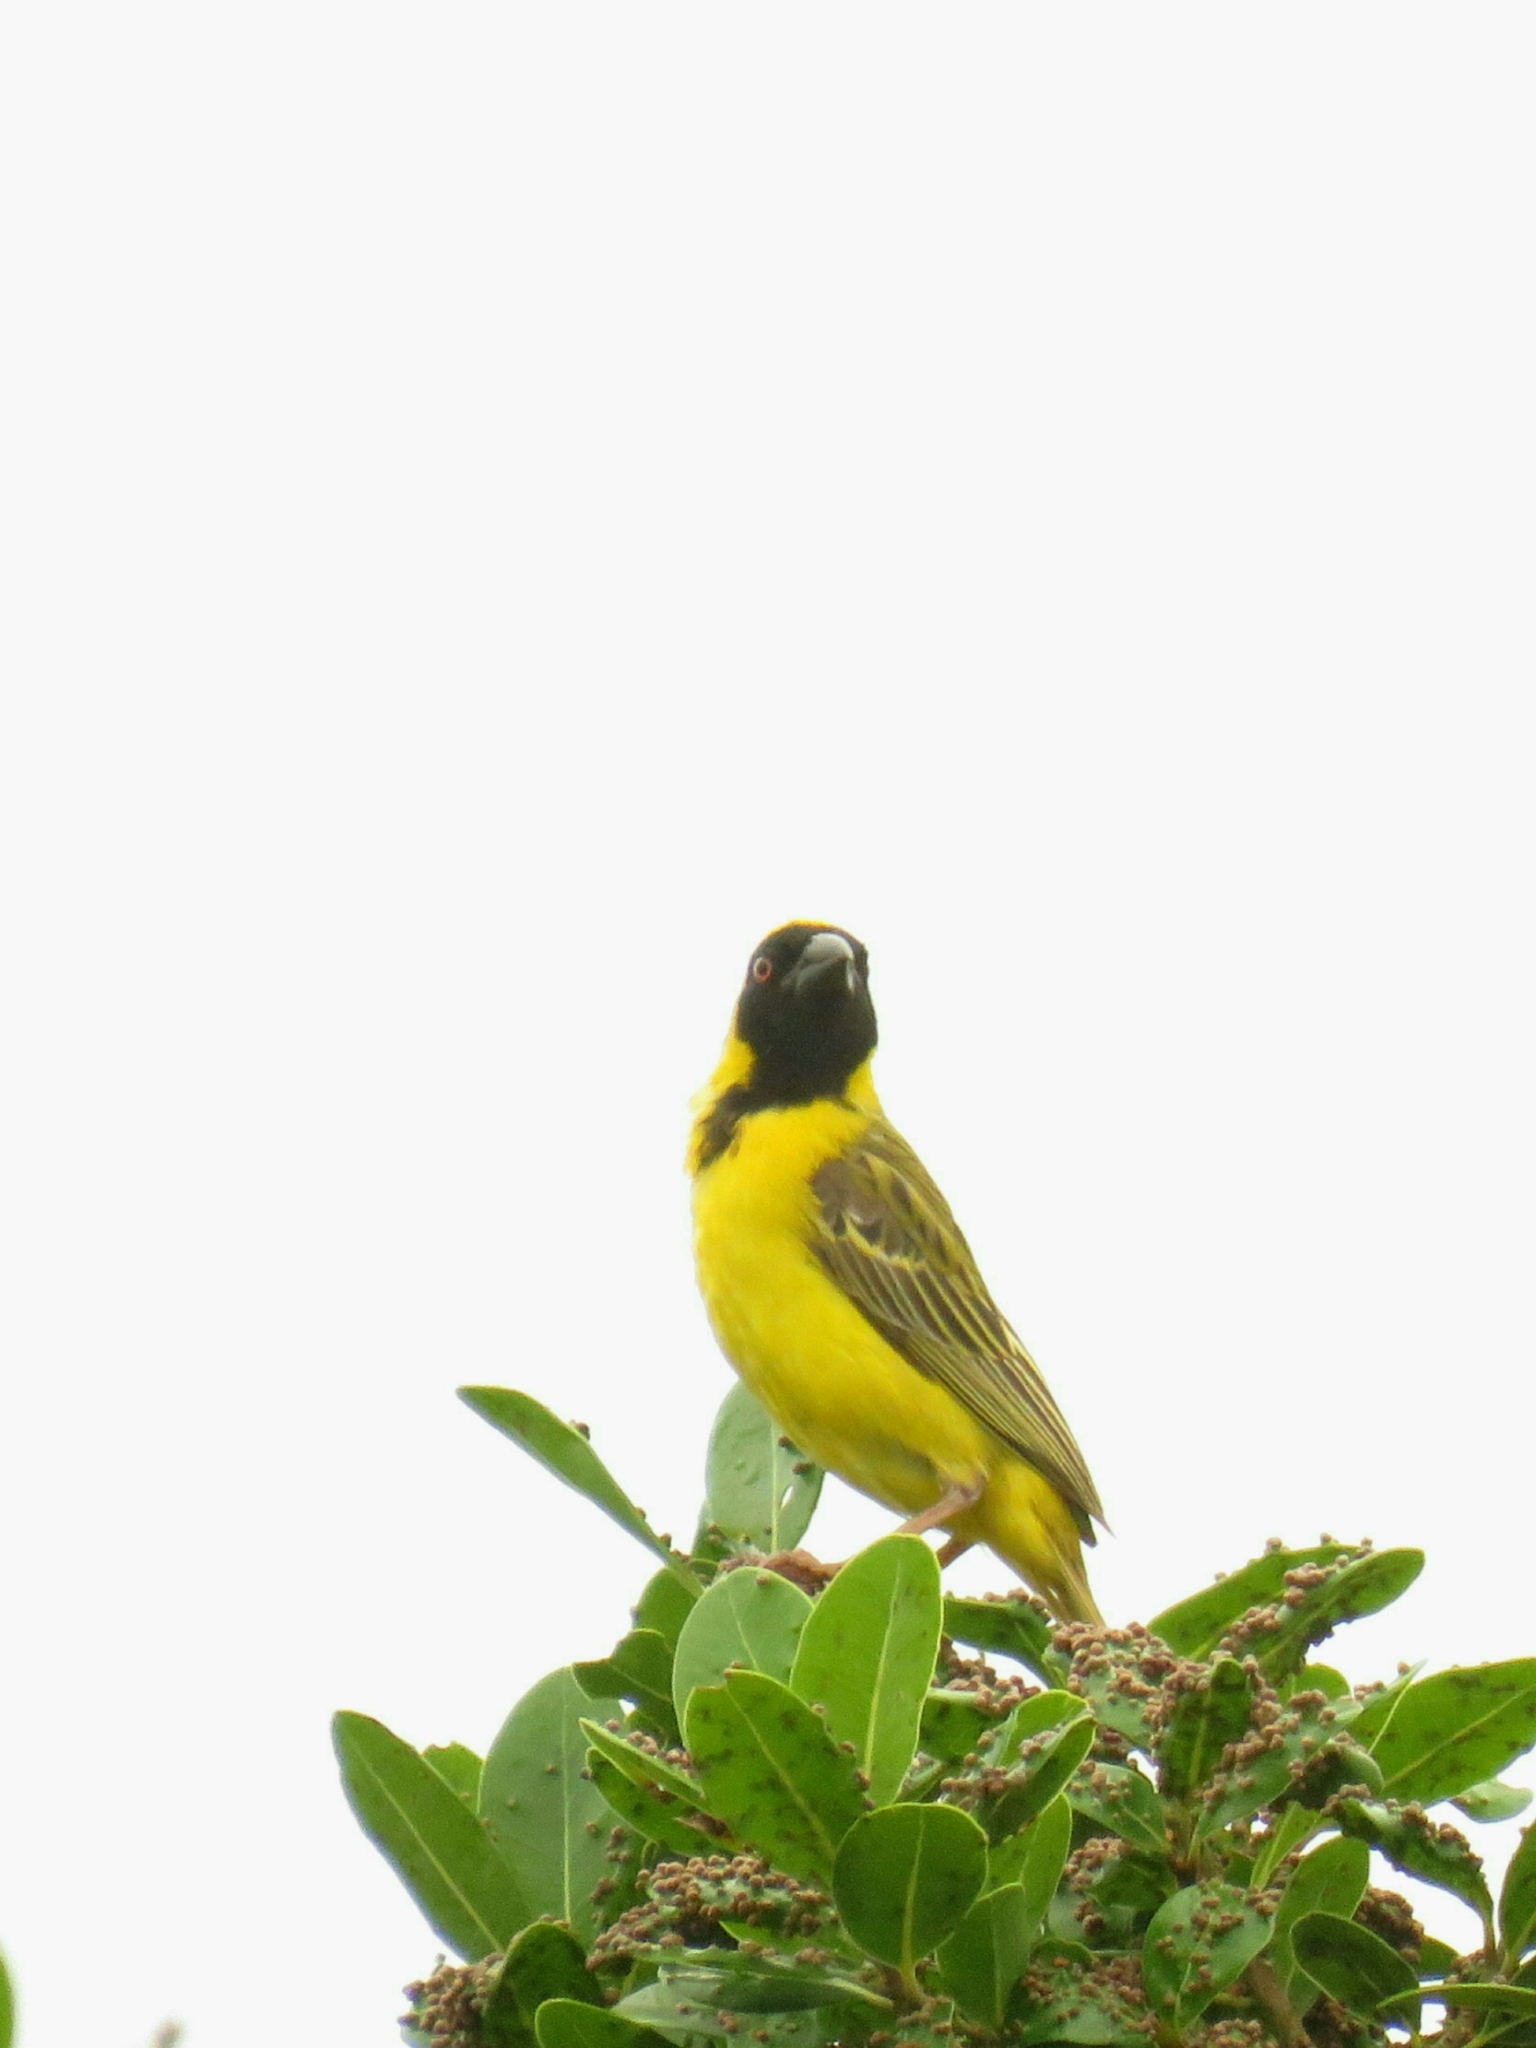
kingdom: Animalia
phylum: Chordata
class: Aves
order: Passeriformes
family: Ploceidae
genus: Ploceus
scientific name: Ploceus velatus
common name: Southern masked weaver
